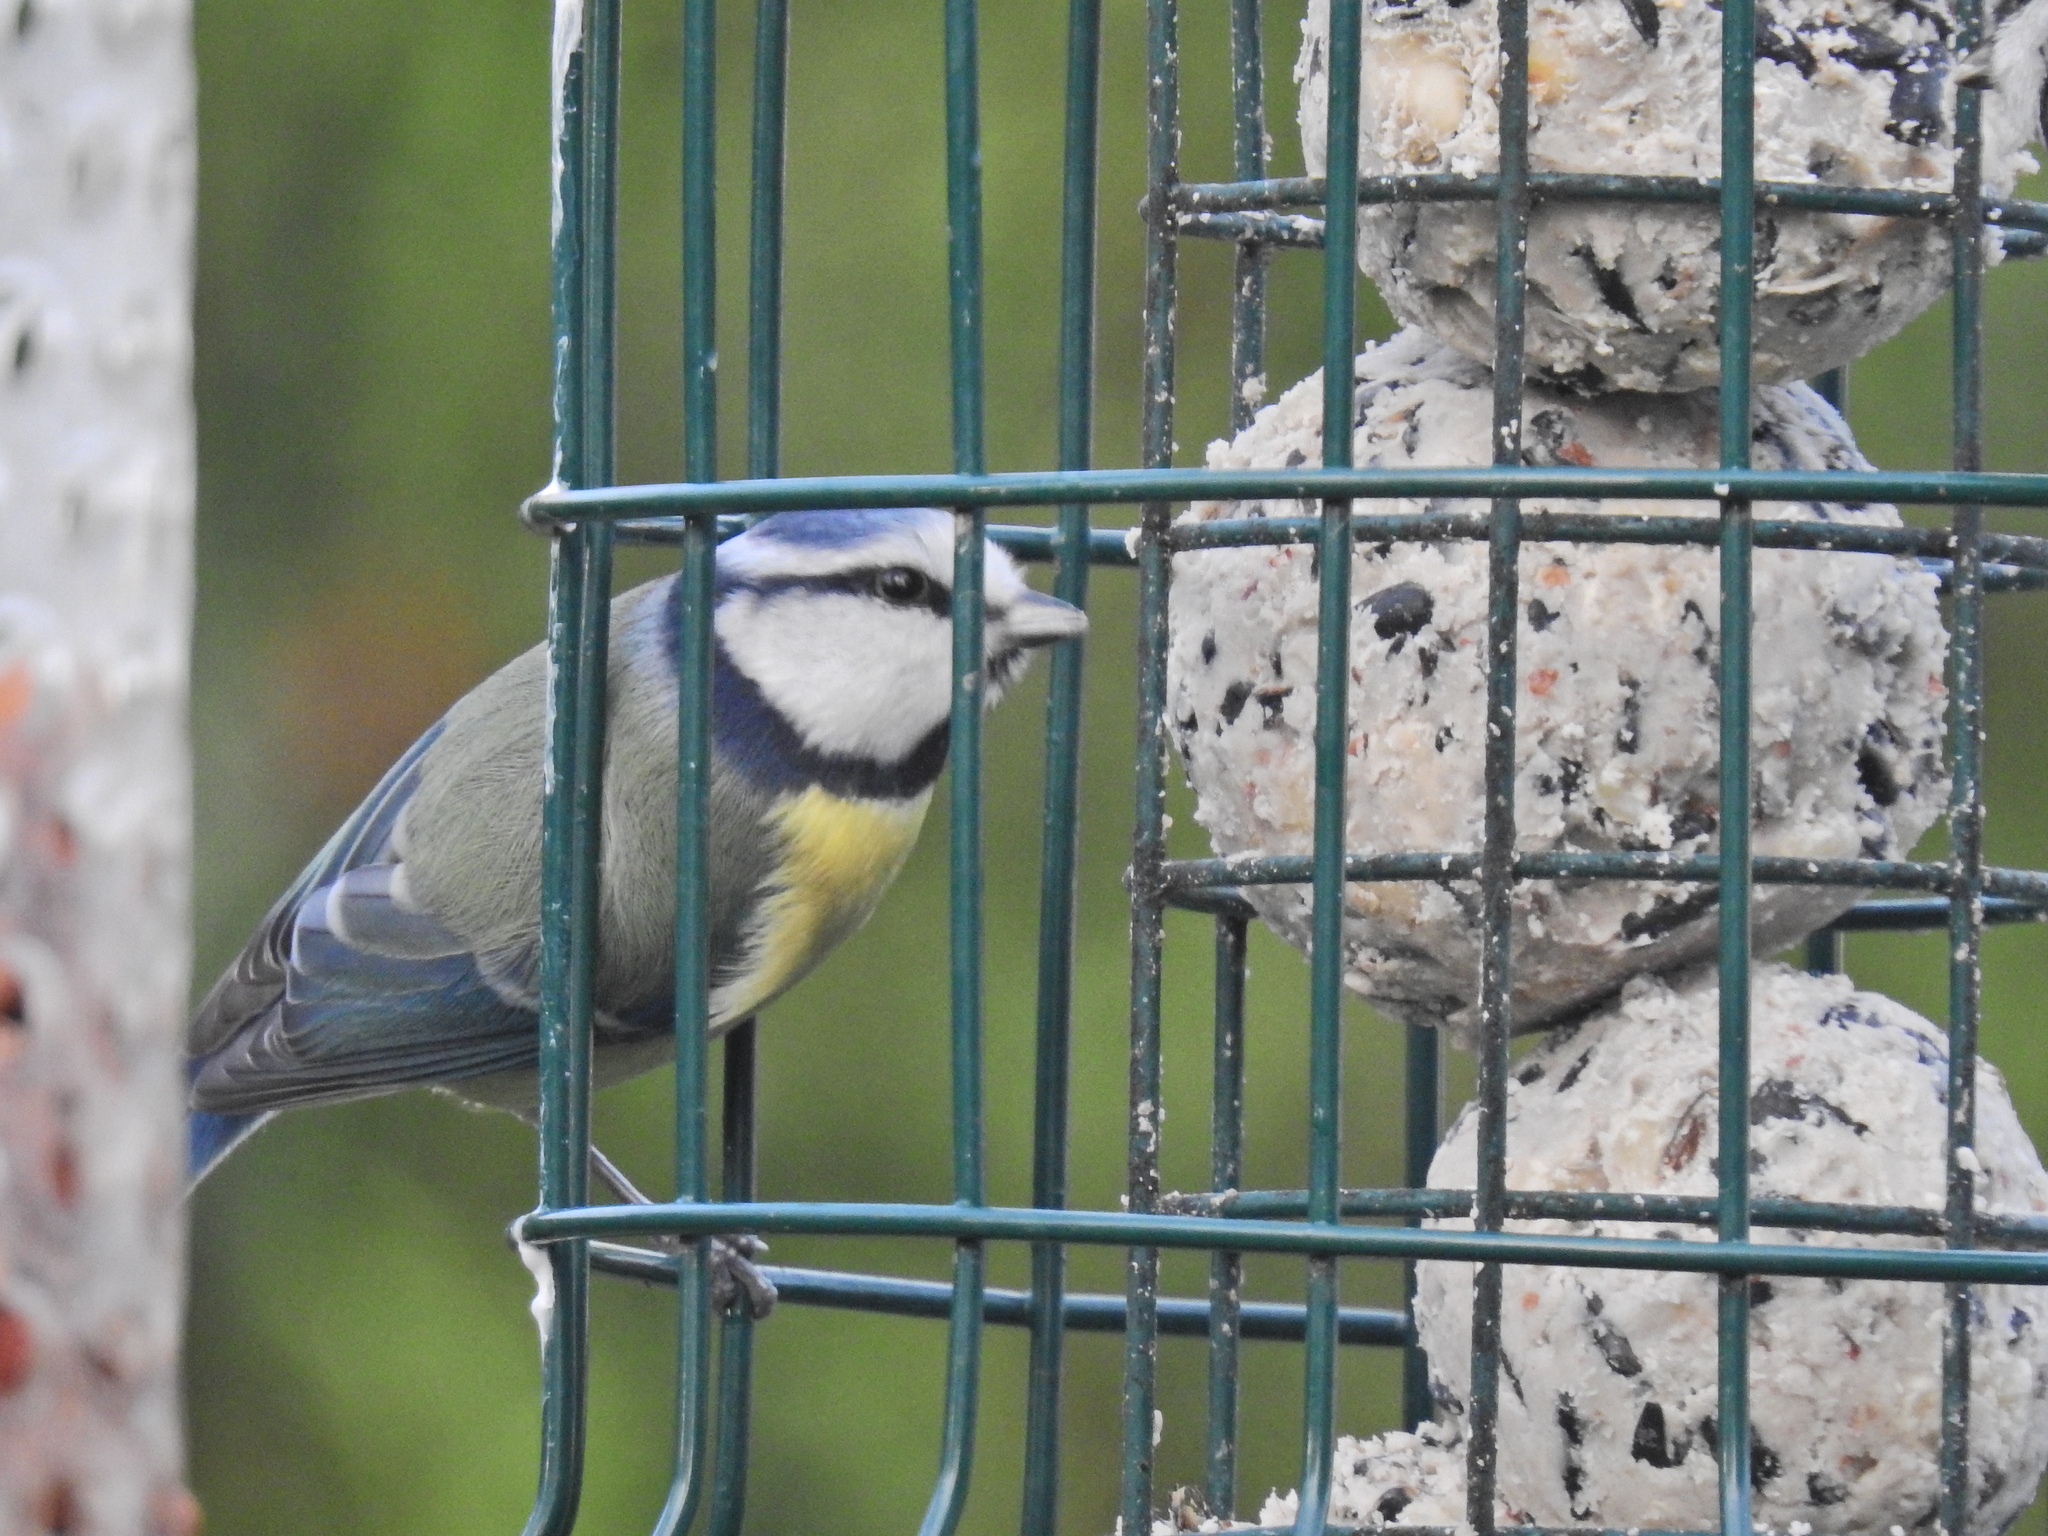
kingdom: Animalia
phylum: Chordata
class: Aves
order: Passeriformes
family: Paridae
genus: Cyanistes
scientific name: Cyanistes caeruleus
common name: Eurasian blue tit
